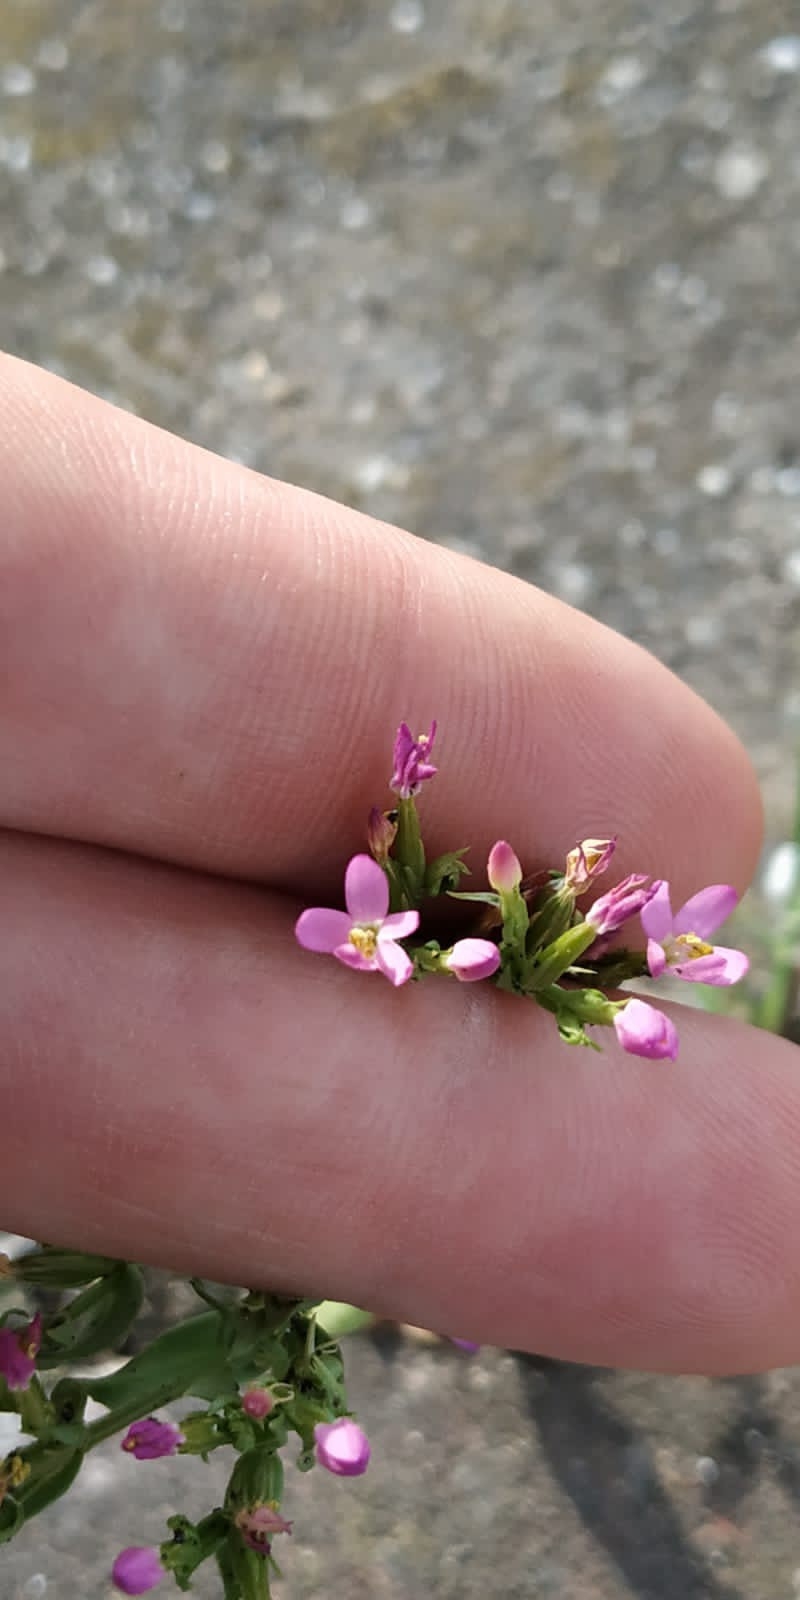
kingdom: Plantae
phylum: Tracheophyta
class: Magnoliopsida
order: Gentianales
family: Gentianaceae
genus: Centaurium
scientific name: Centaurium pulchellum
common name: Lesser centaury
